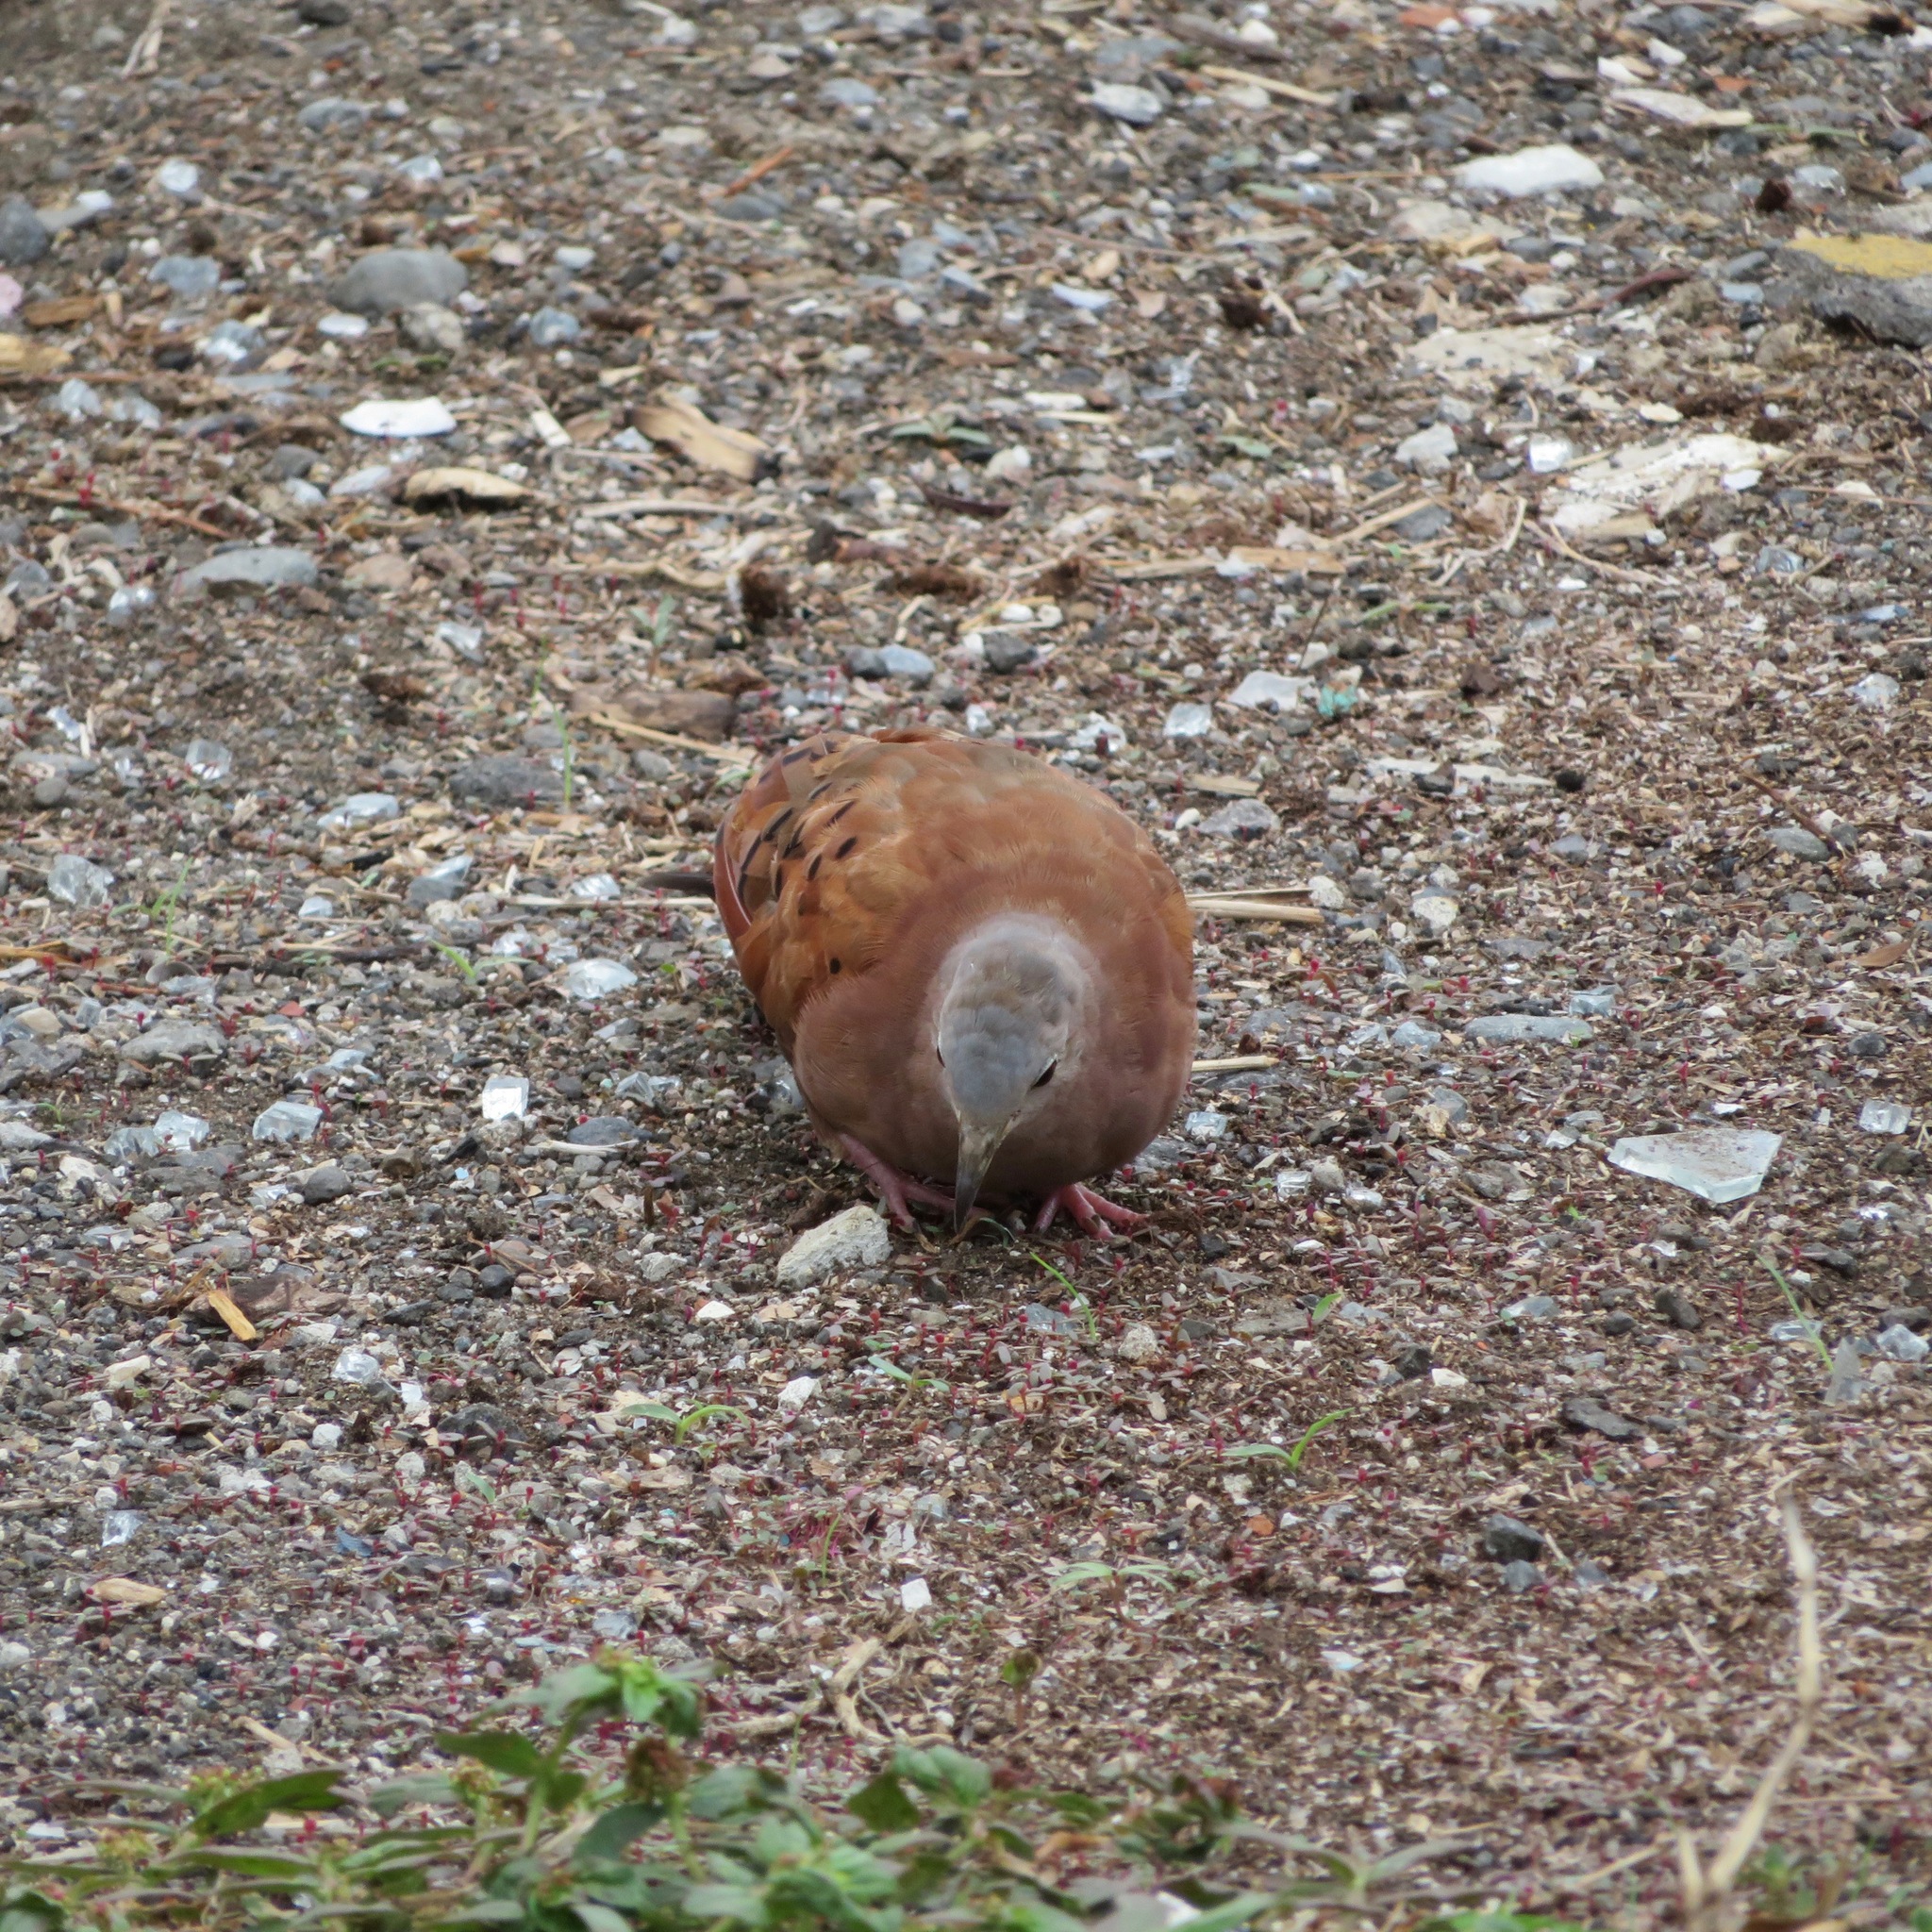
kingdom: Animalia
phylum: Chordata
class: Aves
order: Columbiformes
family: Columbidae
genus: Columbina
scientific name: Columbina talpacoti
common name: Ruddy ground dove
